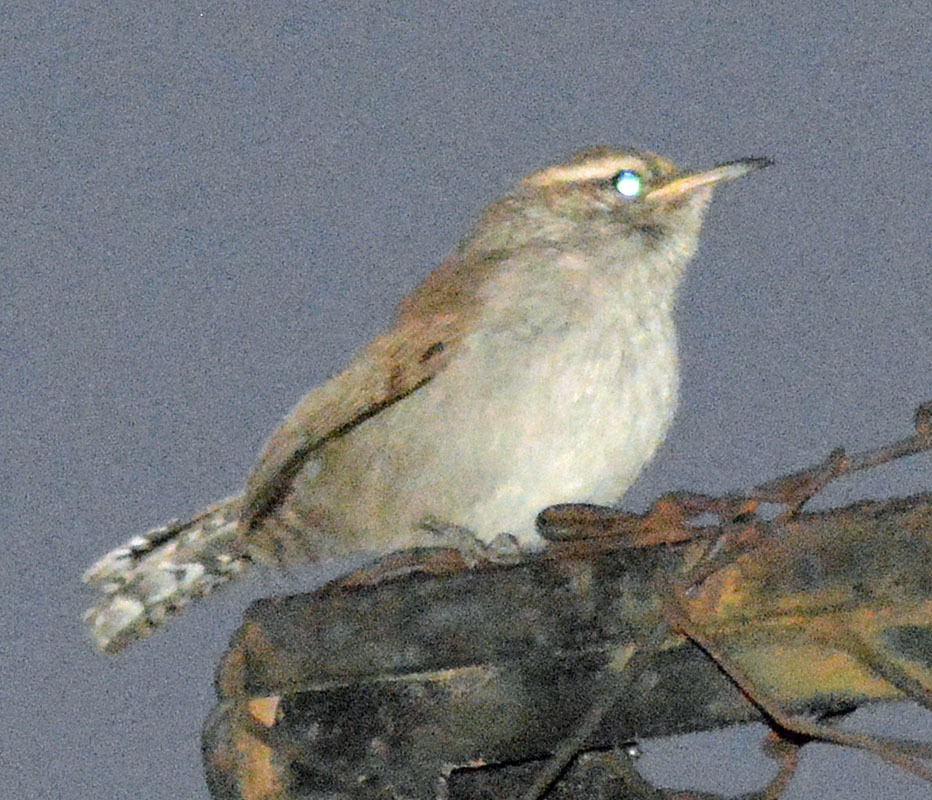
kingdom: Animalia
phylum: Chordata
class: Aves
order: Passeriformes
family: Troglodytidae
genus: Thryomanes
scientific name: Thryomanes bewickii
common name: Bewick's wren
